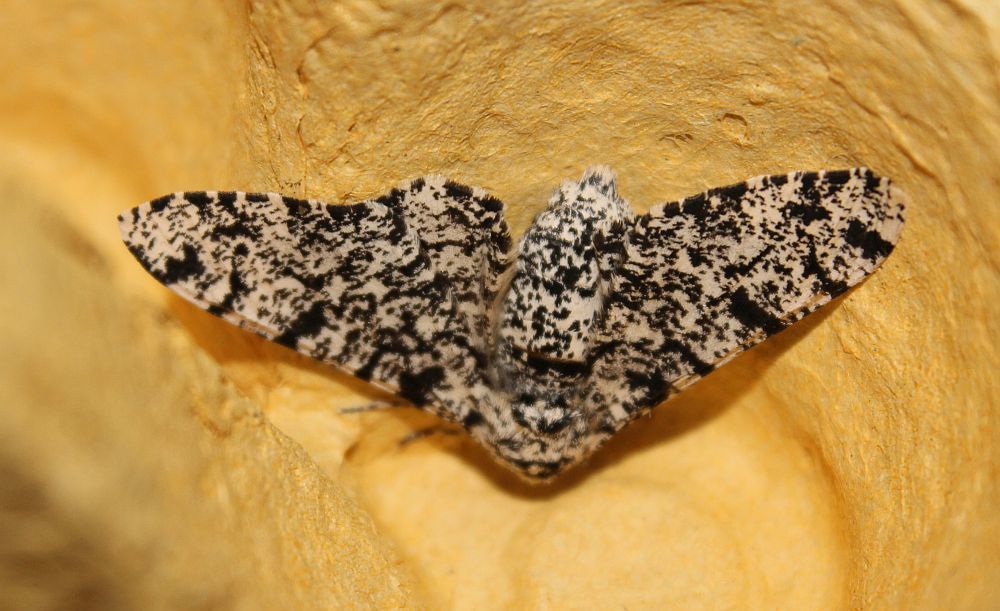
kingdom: Animalia
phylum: Arthropoda
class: Insecta
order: Lepidoptera
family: Geometridae
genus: Biston
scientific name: Biston betularia
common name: Peppered moth
